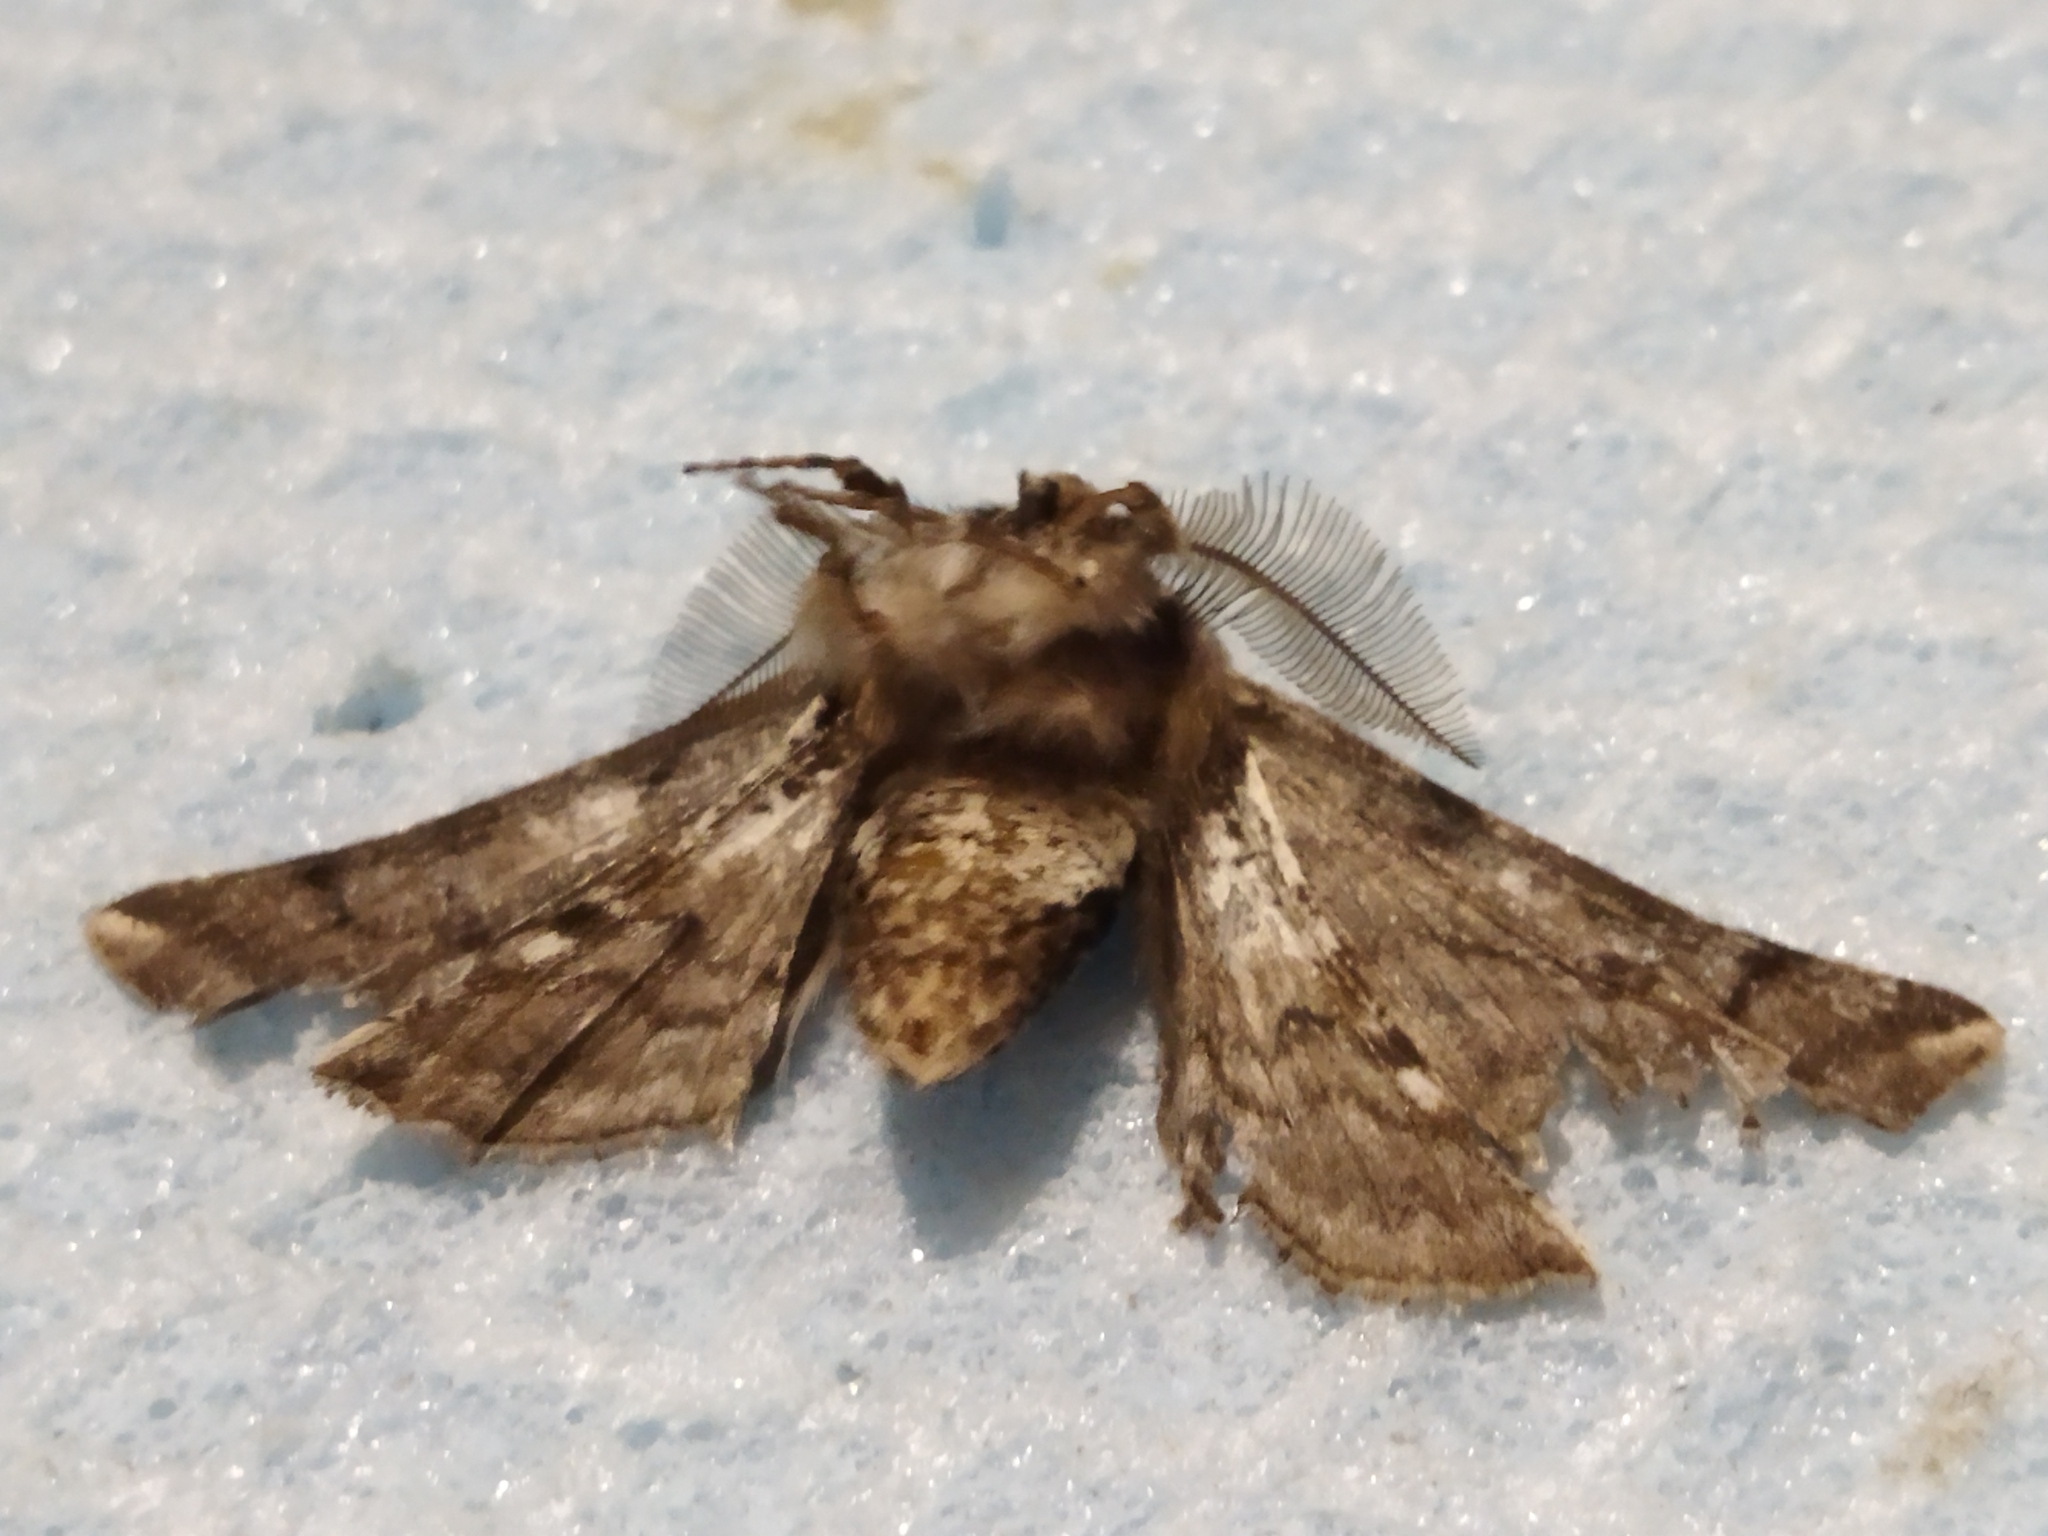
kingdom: Animalia
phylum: Arthropoda
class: Insecta
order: Lepidoptera
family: Geometridae
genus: Apochima
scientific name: Apochima flabellaria
